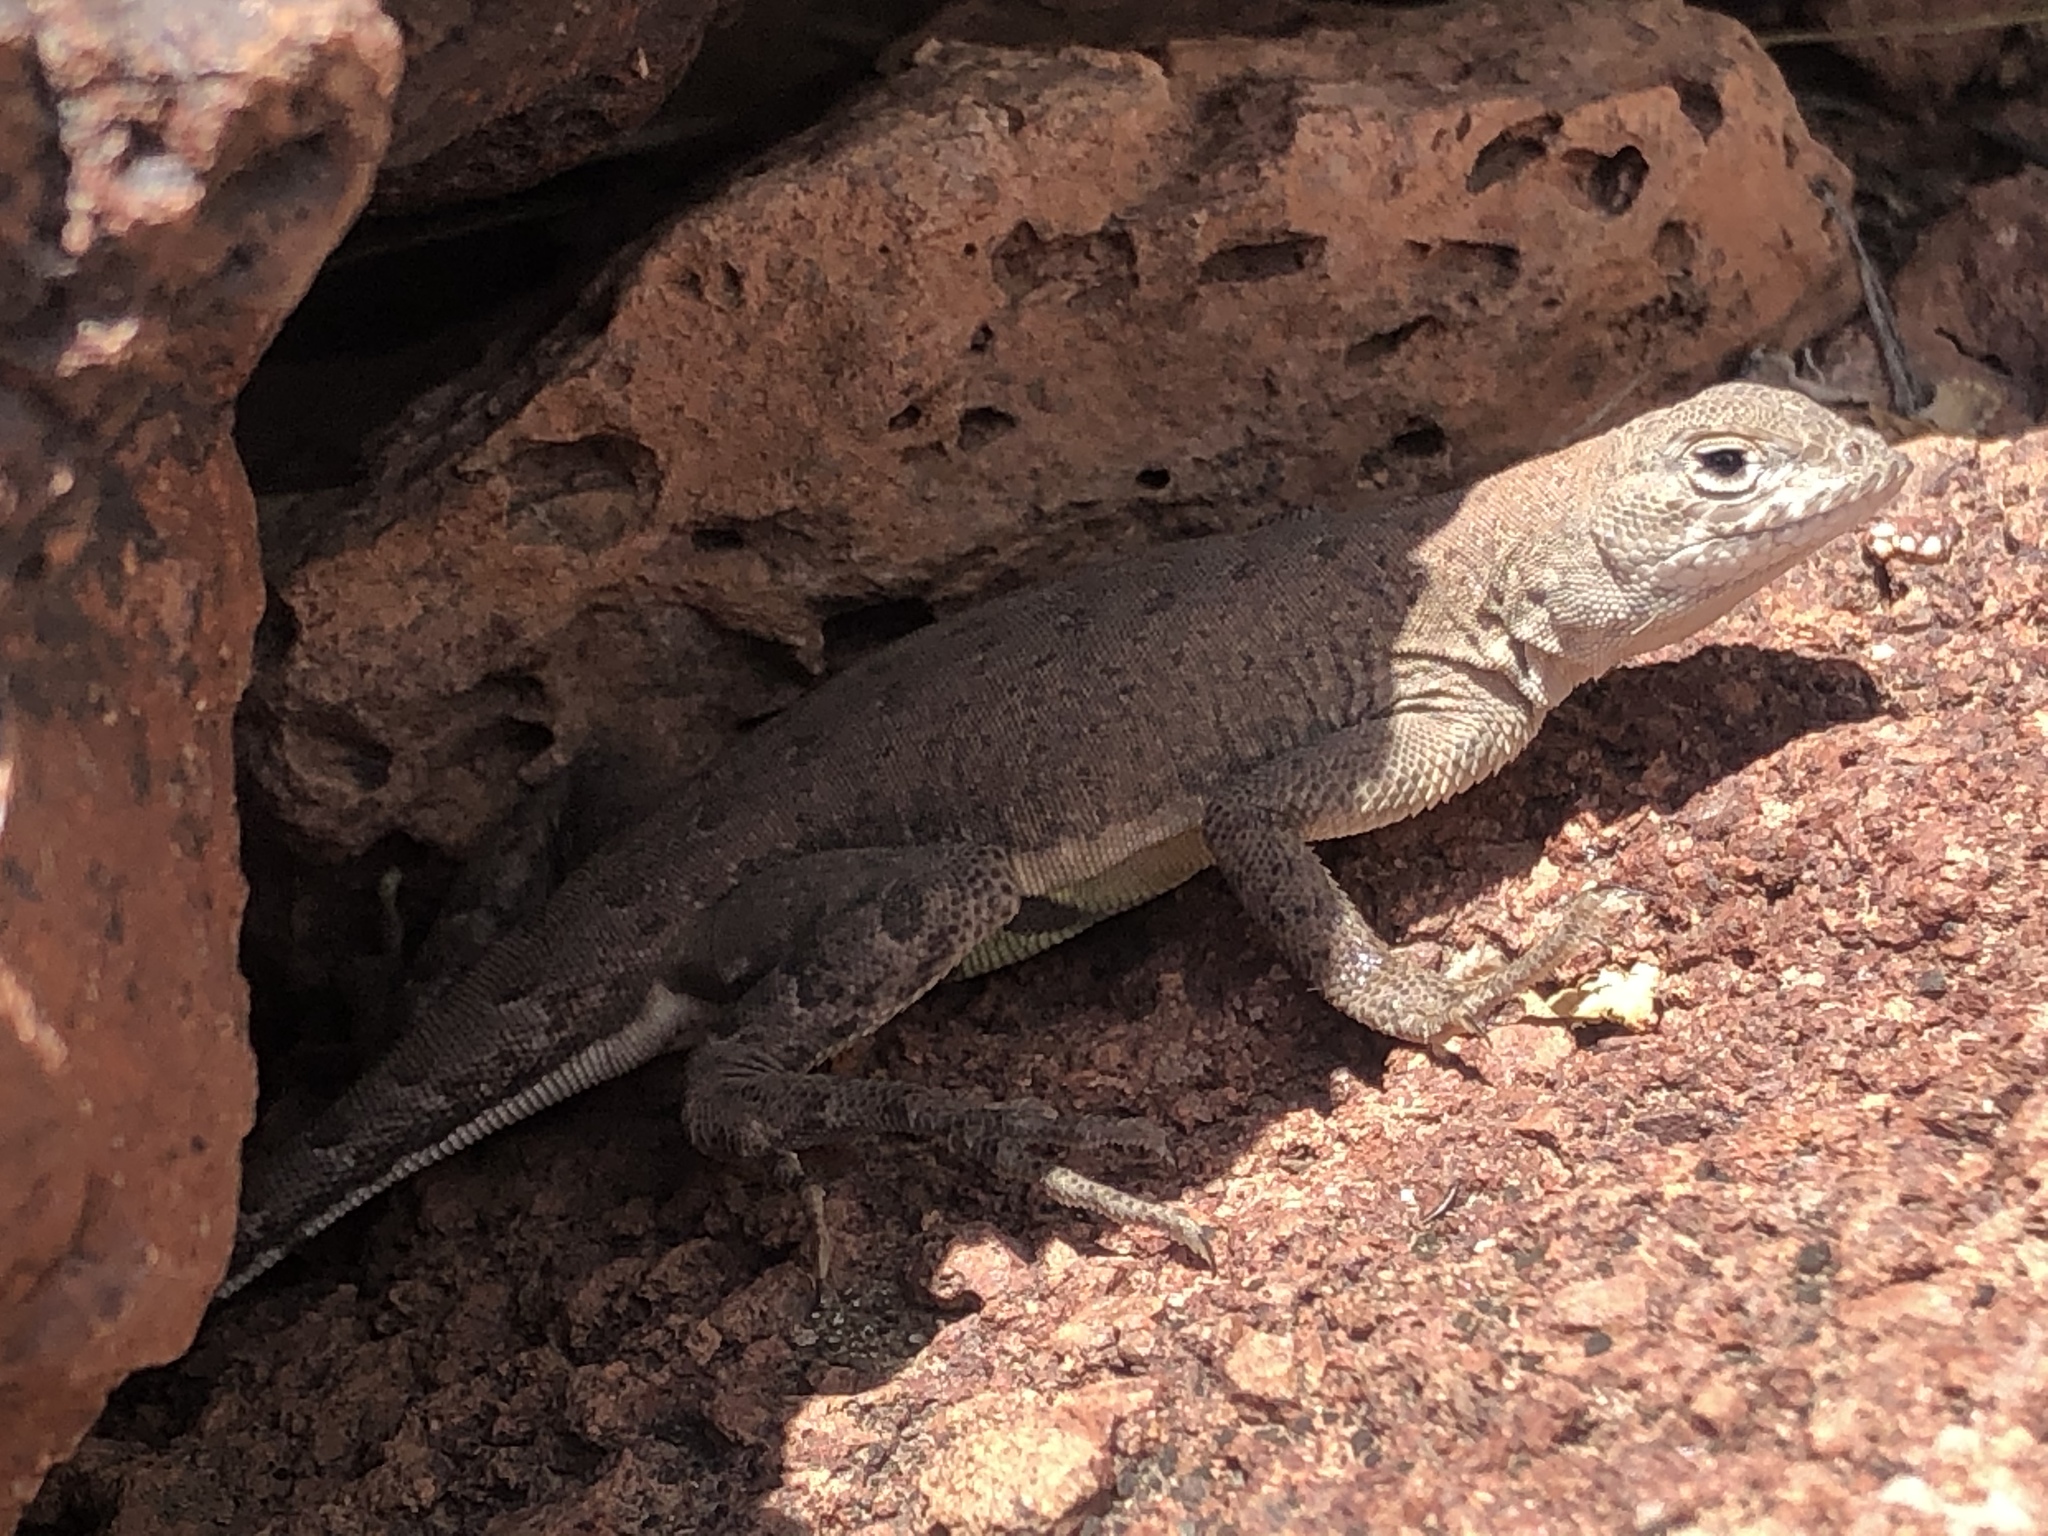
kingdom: Animalia
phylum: Chordata
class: Squamata
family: Phrynosomatidae
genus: Holbrookia
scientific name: Holbrookia maculata
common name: Lesser earless lizard
